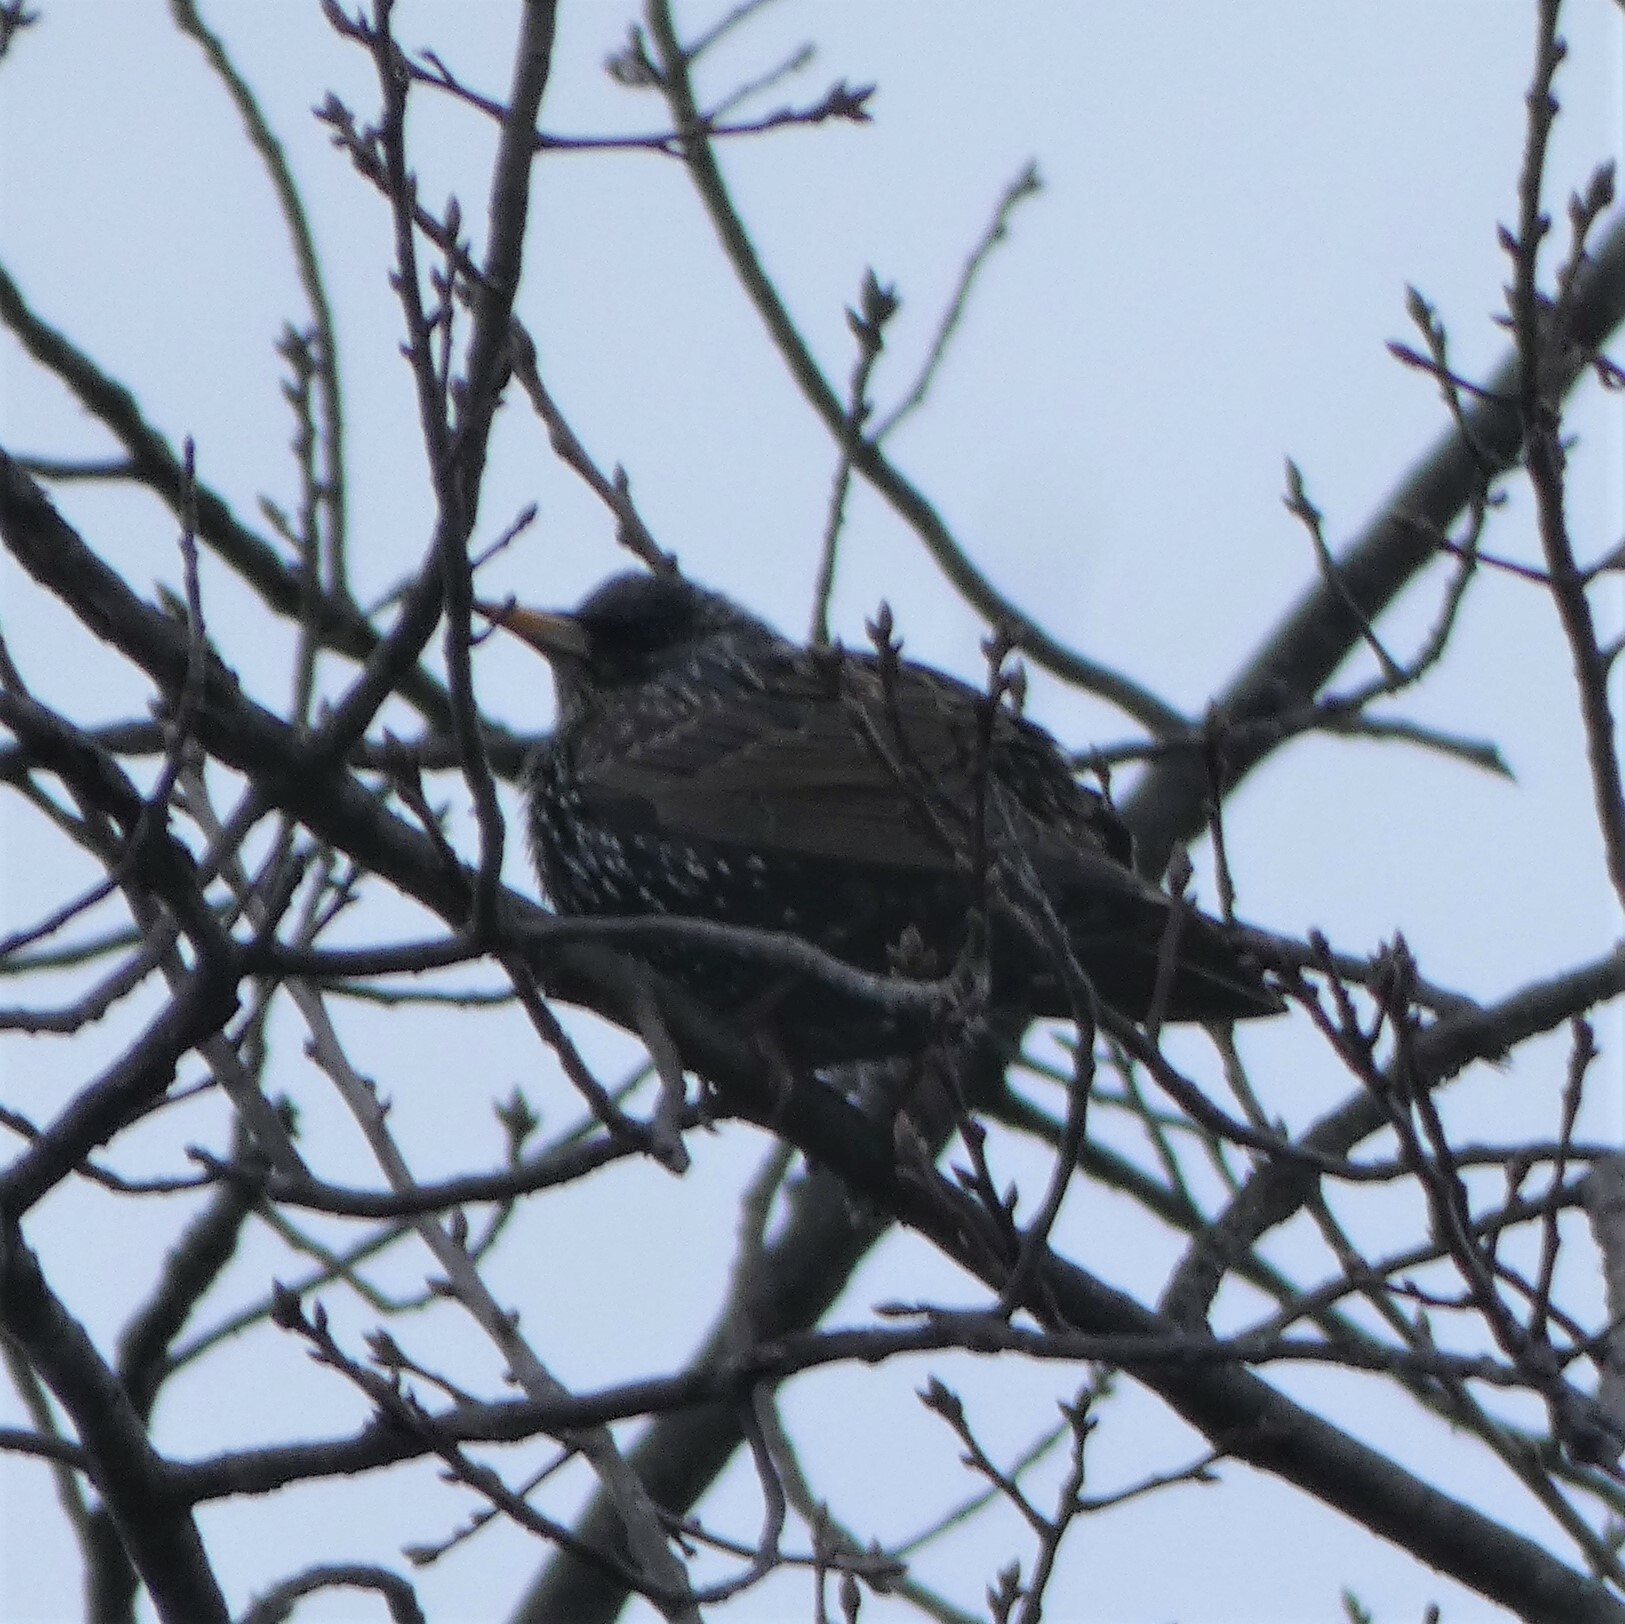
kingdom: Animalia
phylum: Chordata
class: Aves
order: Passeriformes
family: Sturnidae
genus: Sturnus
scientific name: Sturnus vulgaris
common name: Common starling
